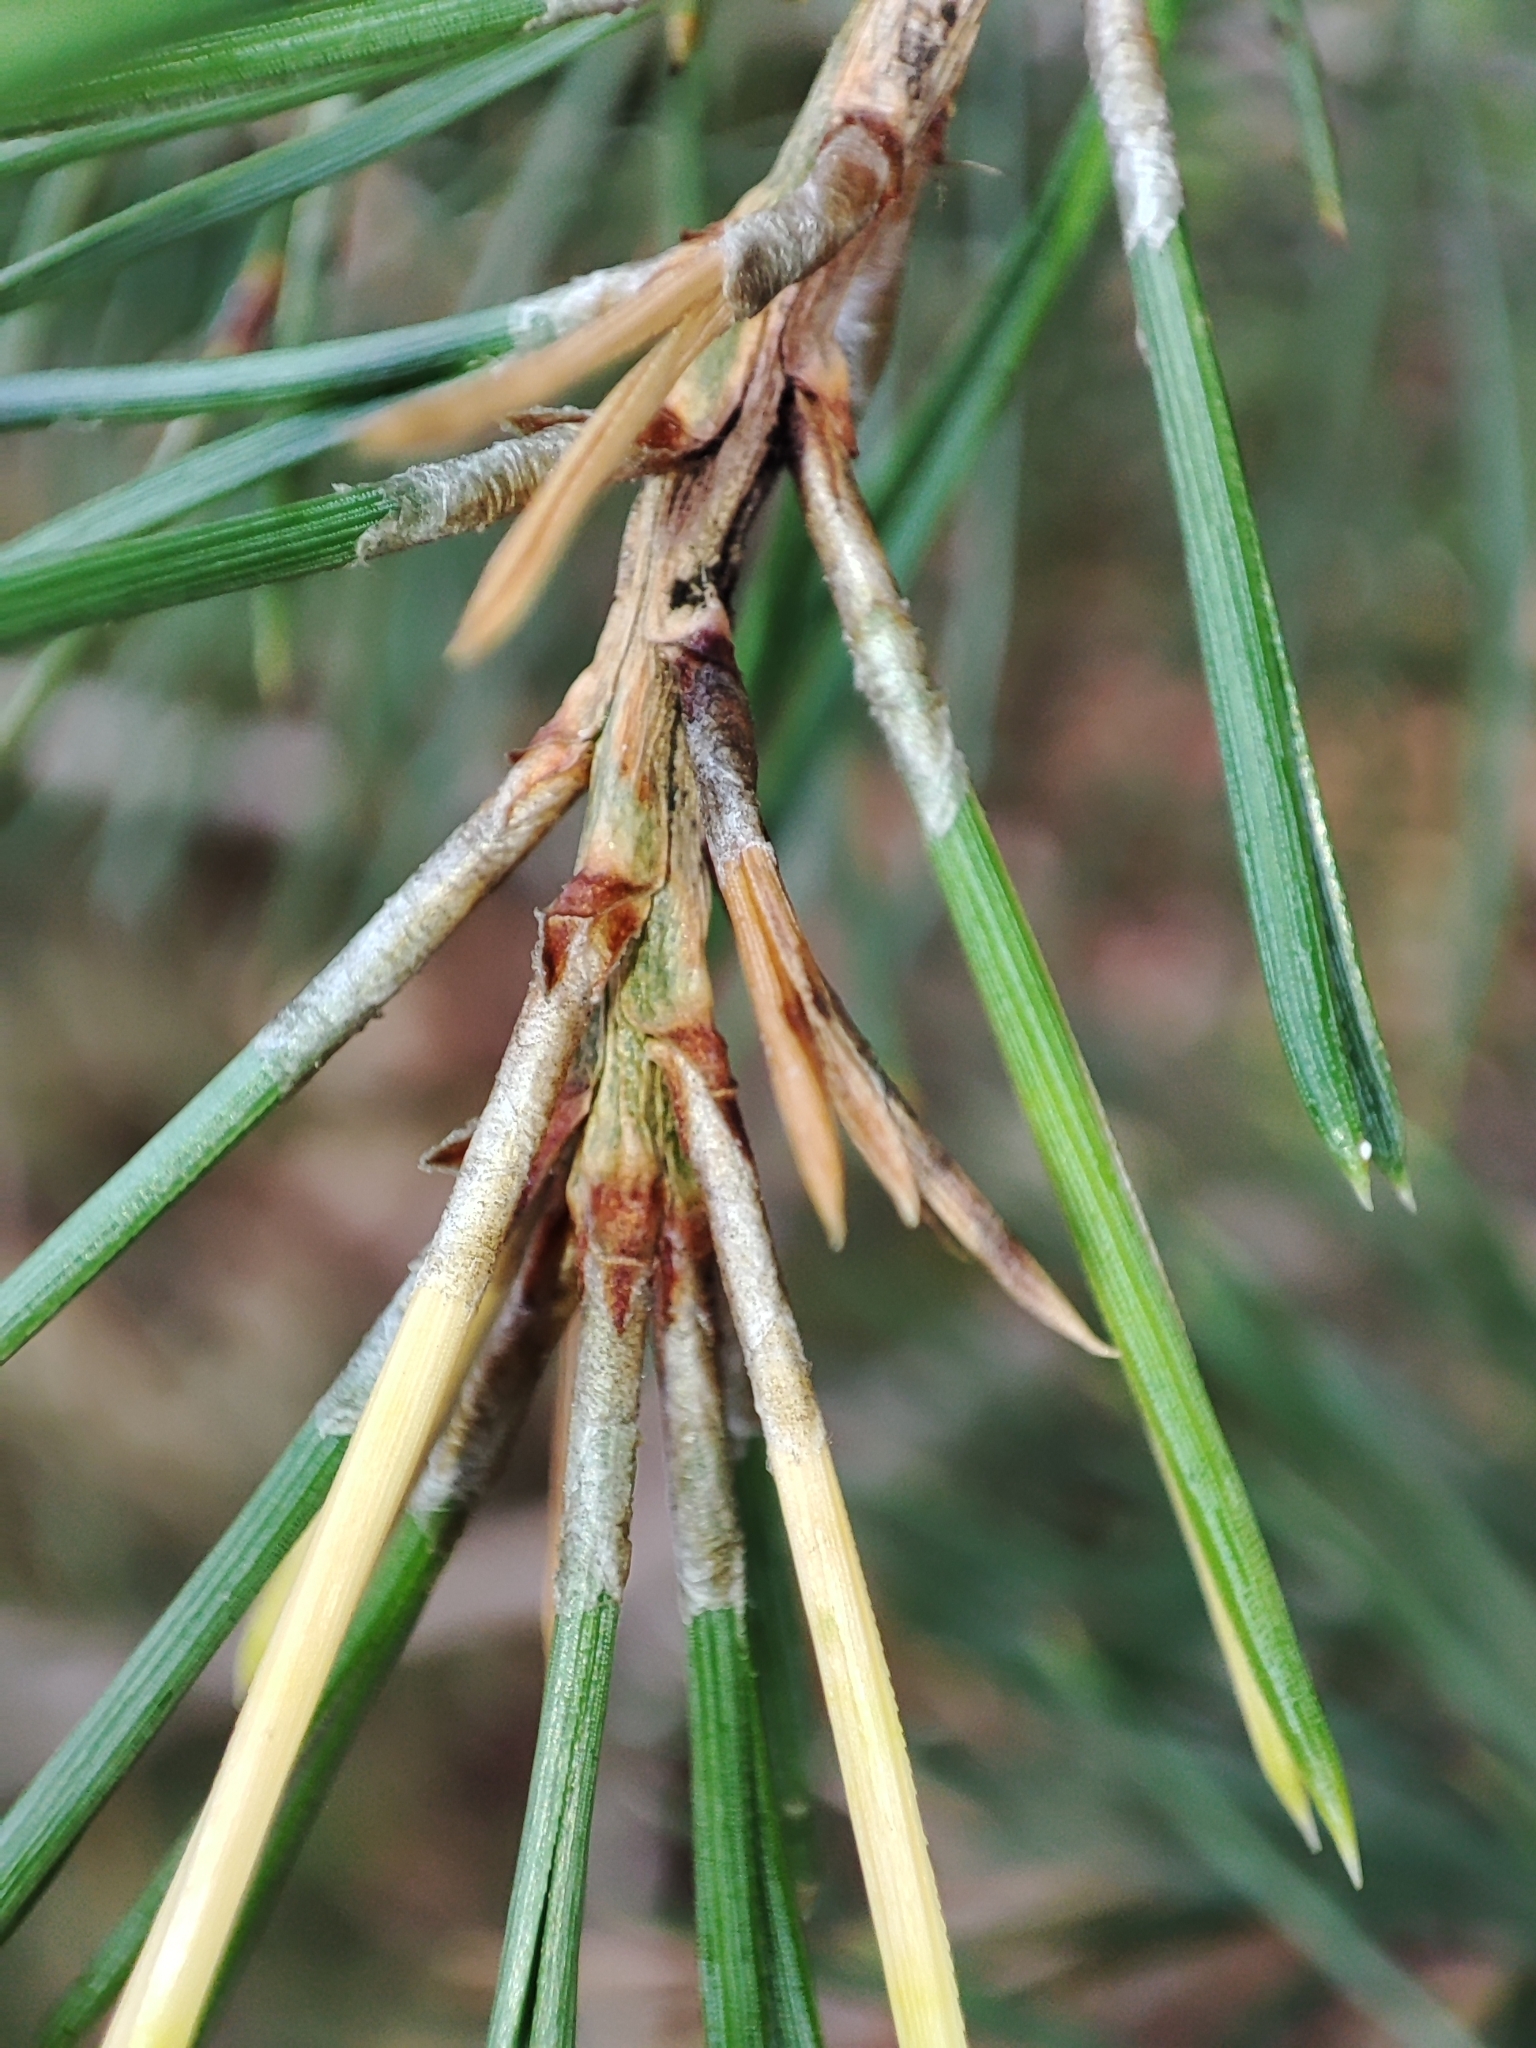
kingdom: Plantae
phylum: Tracheophyta
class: Pinopsida
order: Pinales
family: Pinaceae
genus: Pinus
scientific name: Pinus sylvestris
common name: Scots pine
